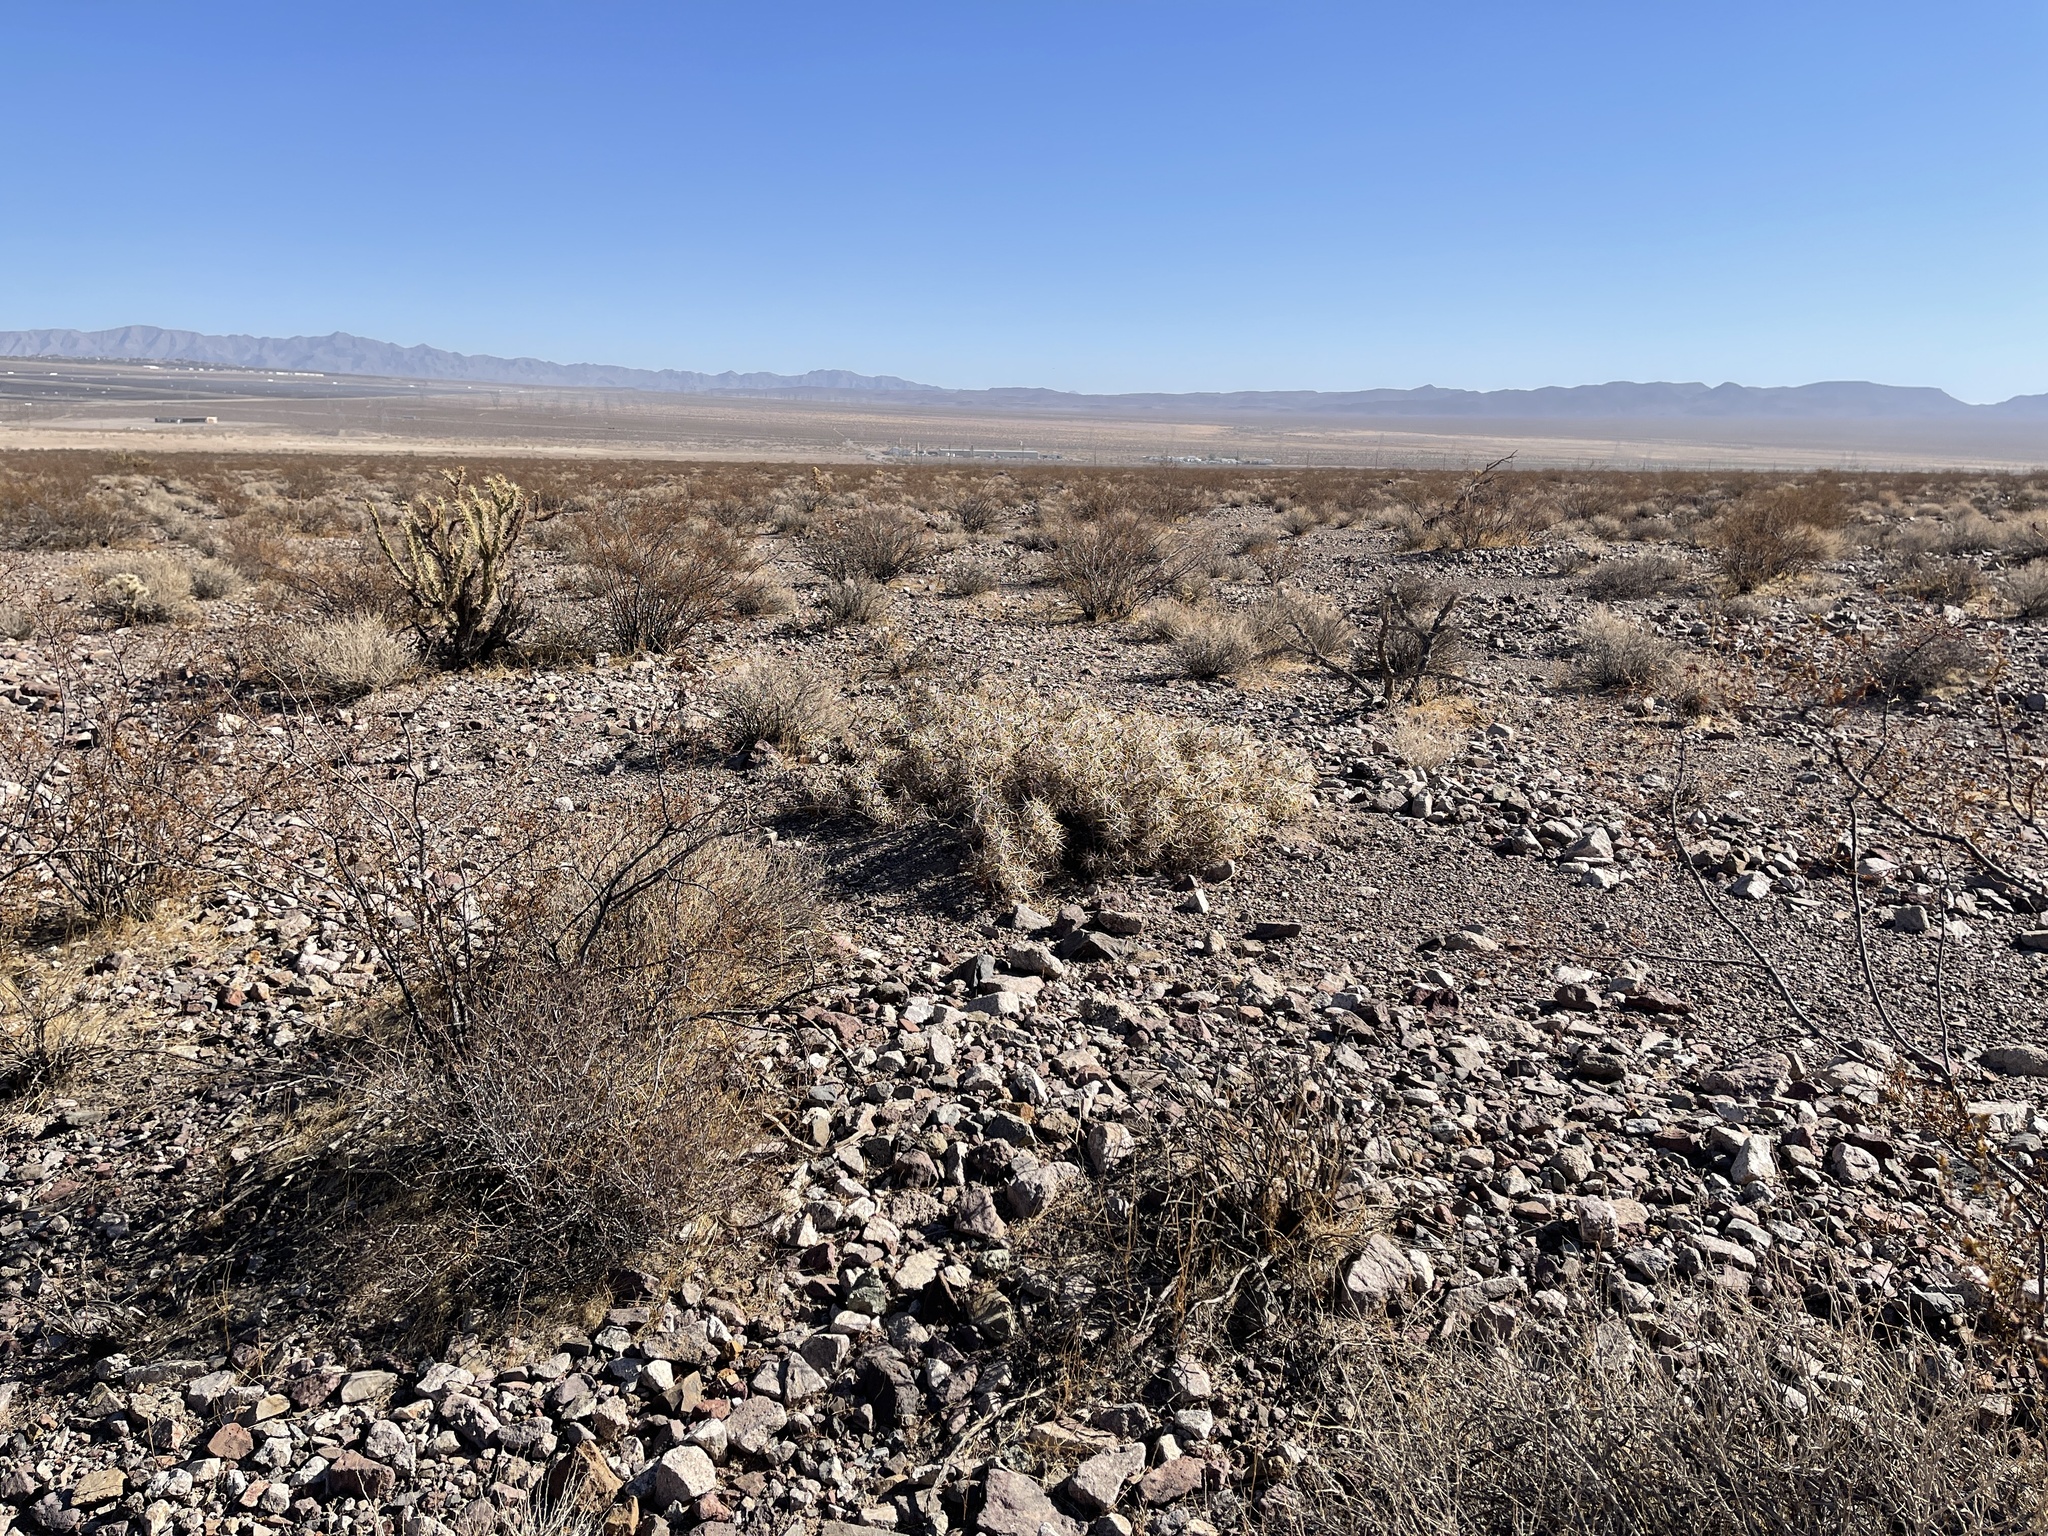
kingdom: Plantae
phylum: Tracheophyta
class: Magnoliopsida
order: Caryophyllales
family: Cactaceae
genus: Cylindropuntia
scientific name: Cylindropuntia ramosissima
